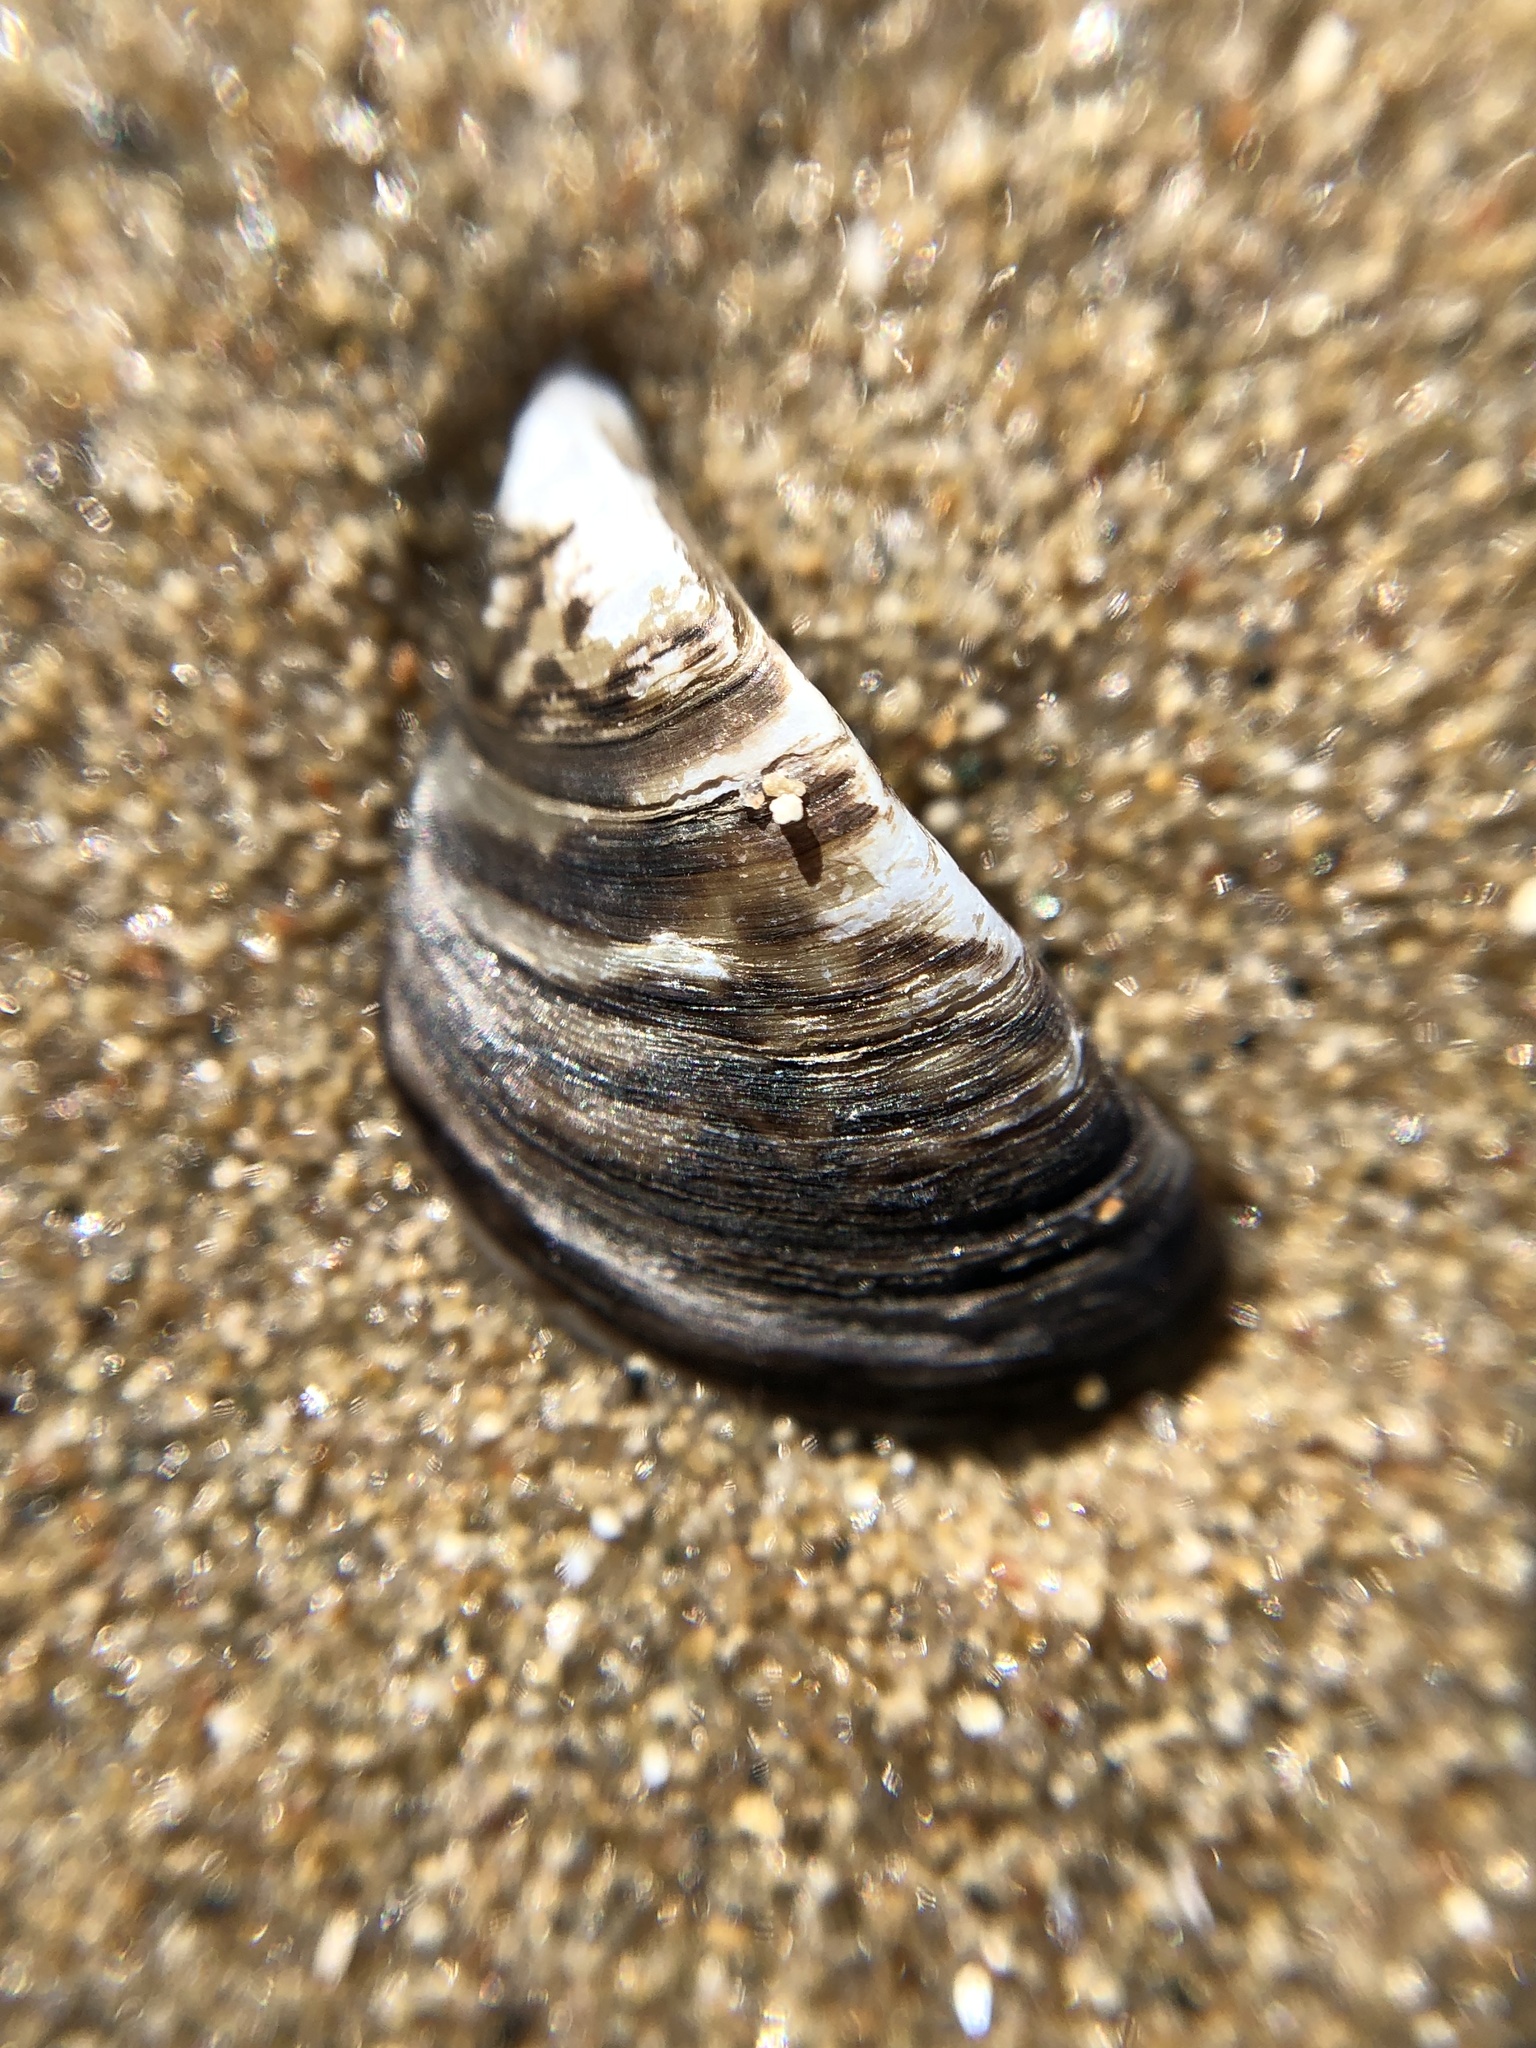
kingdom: Animalia
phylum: Mollusca
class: Bivalvia
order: Myida
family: Dreissenidae
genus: Dreissena
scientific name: Dreissena polymorpha
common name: Zebra mussel
